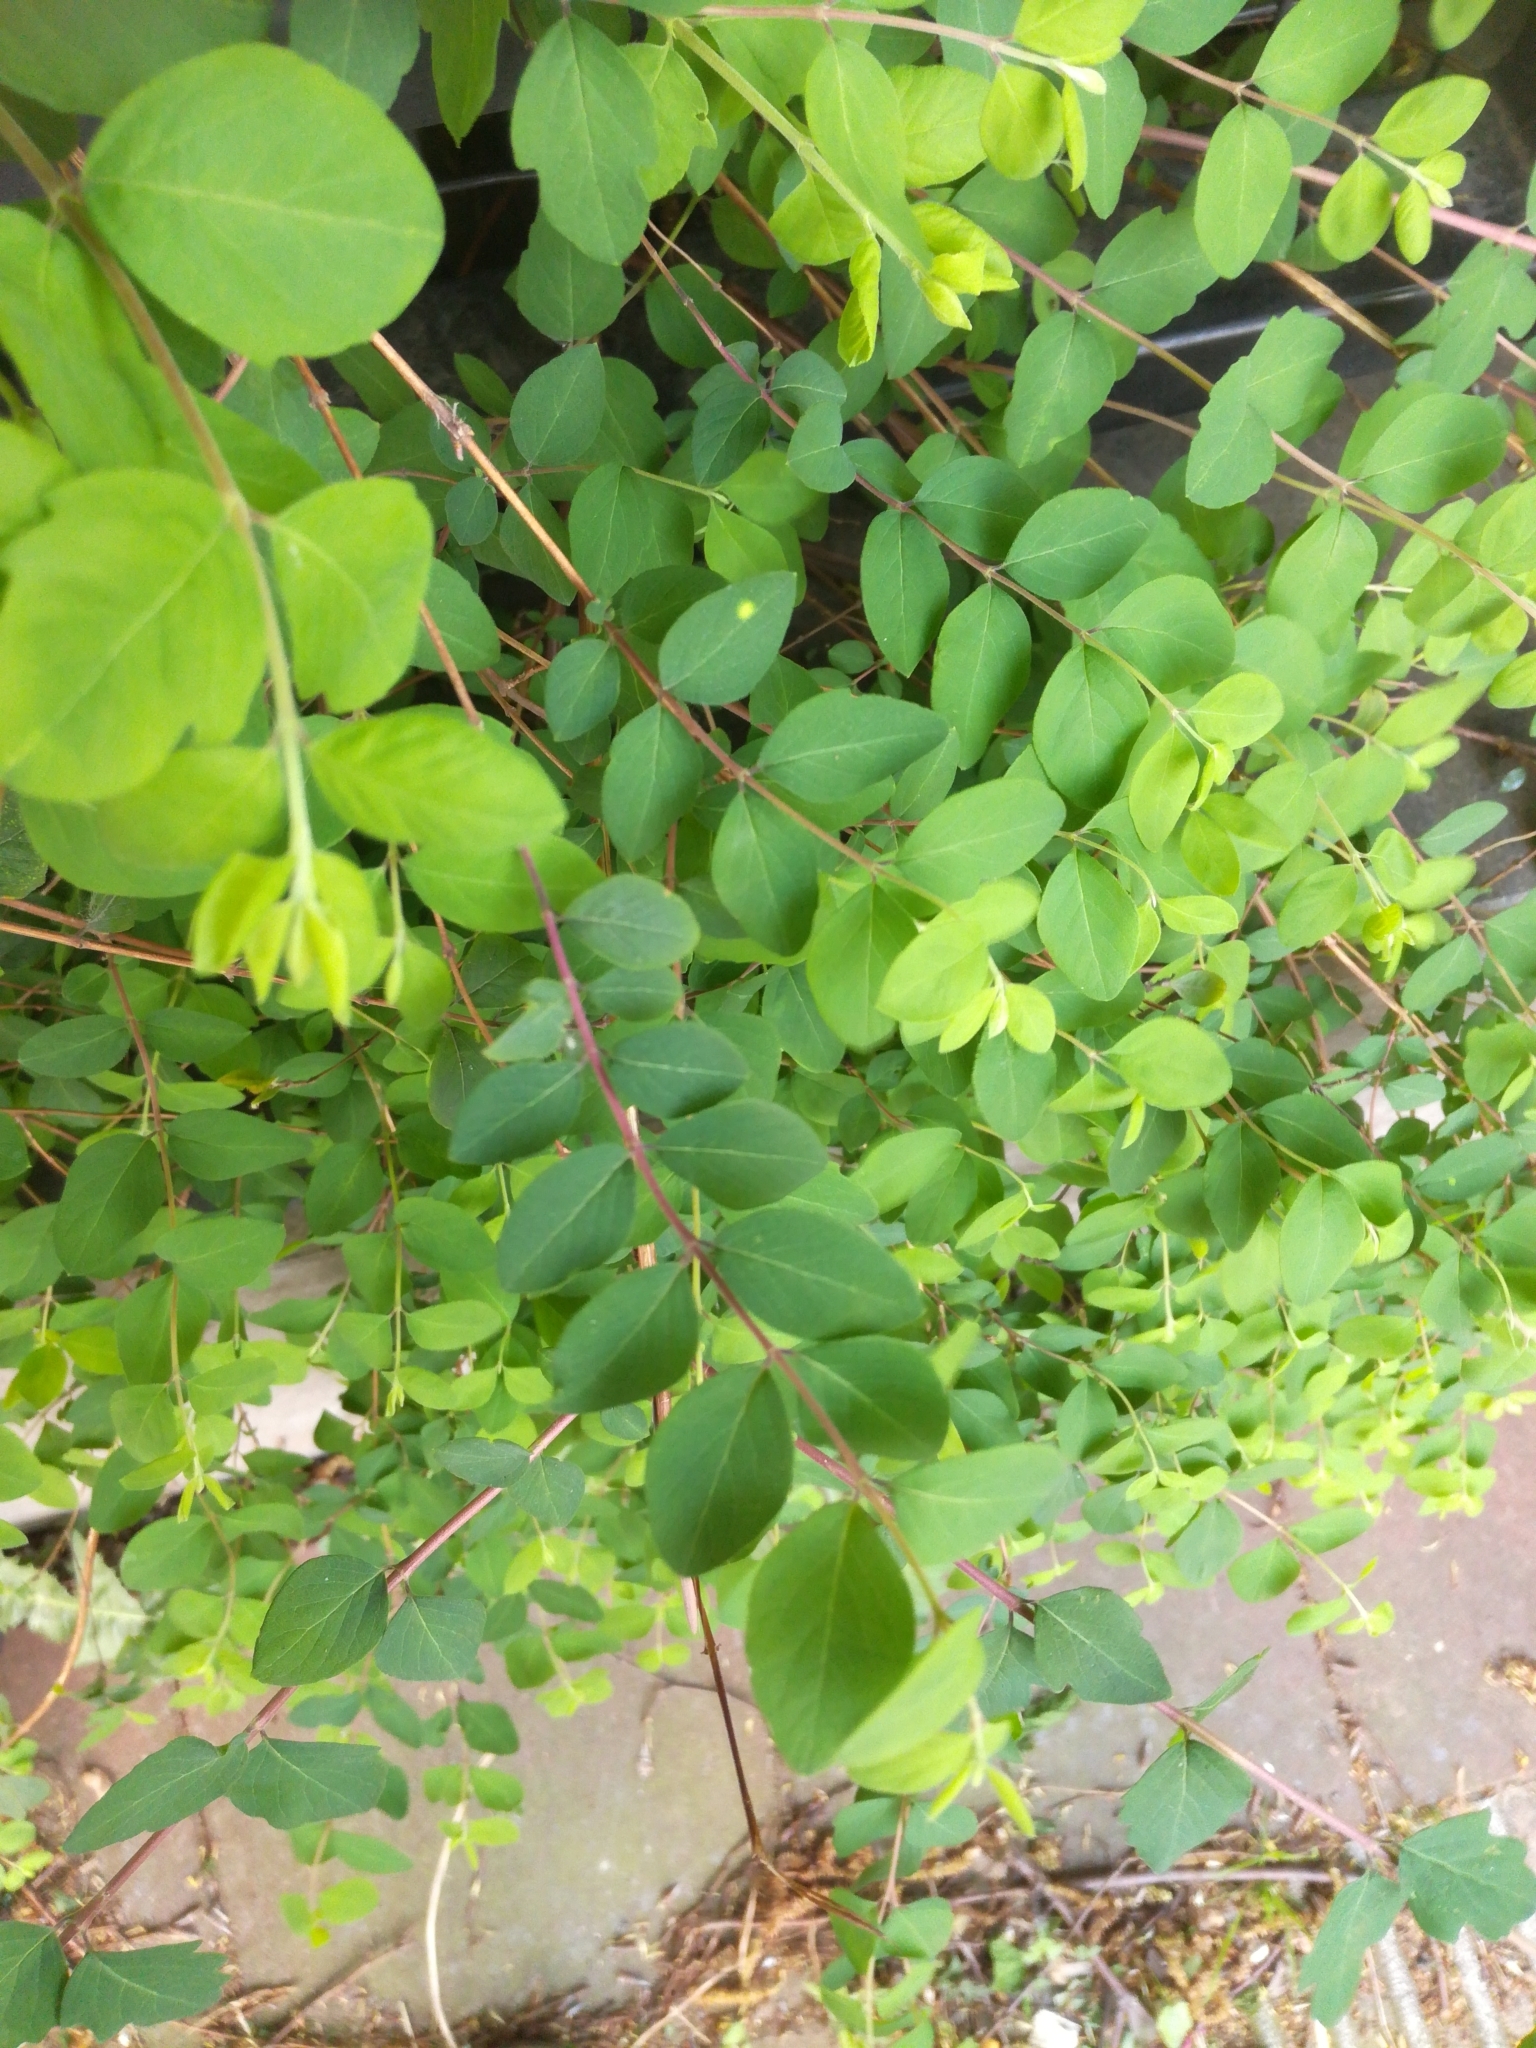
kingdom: Plantae
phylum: Tracheophyta
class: Magnoliopsida
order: Dipsacales
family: Caprifoliaceae
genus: Symphoricarpos
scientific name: Symphoricarpos albus
